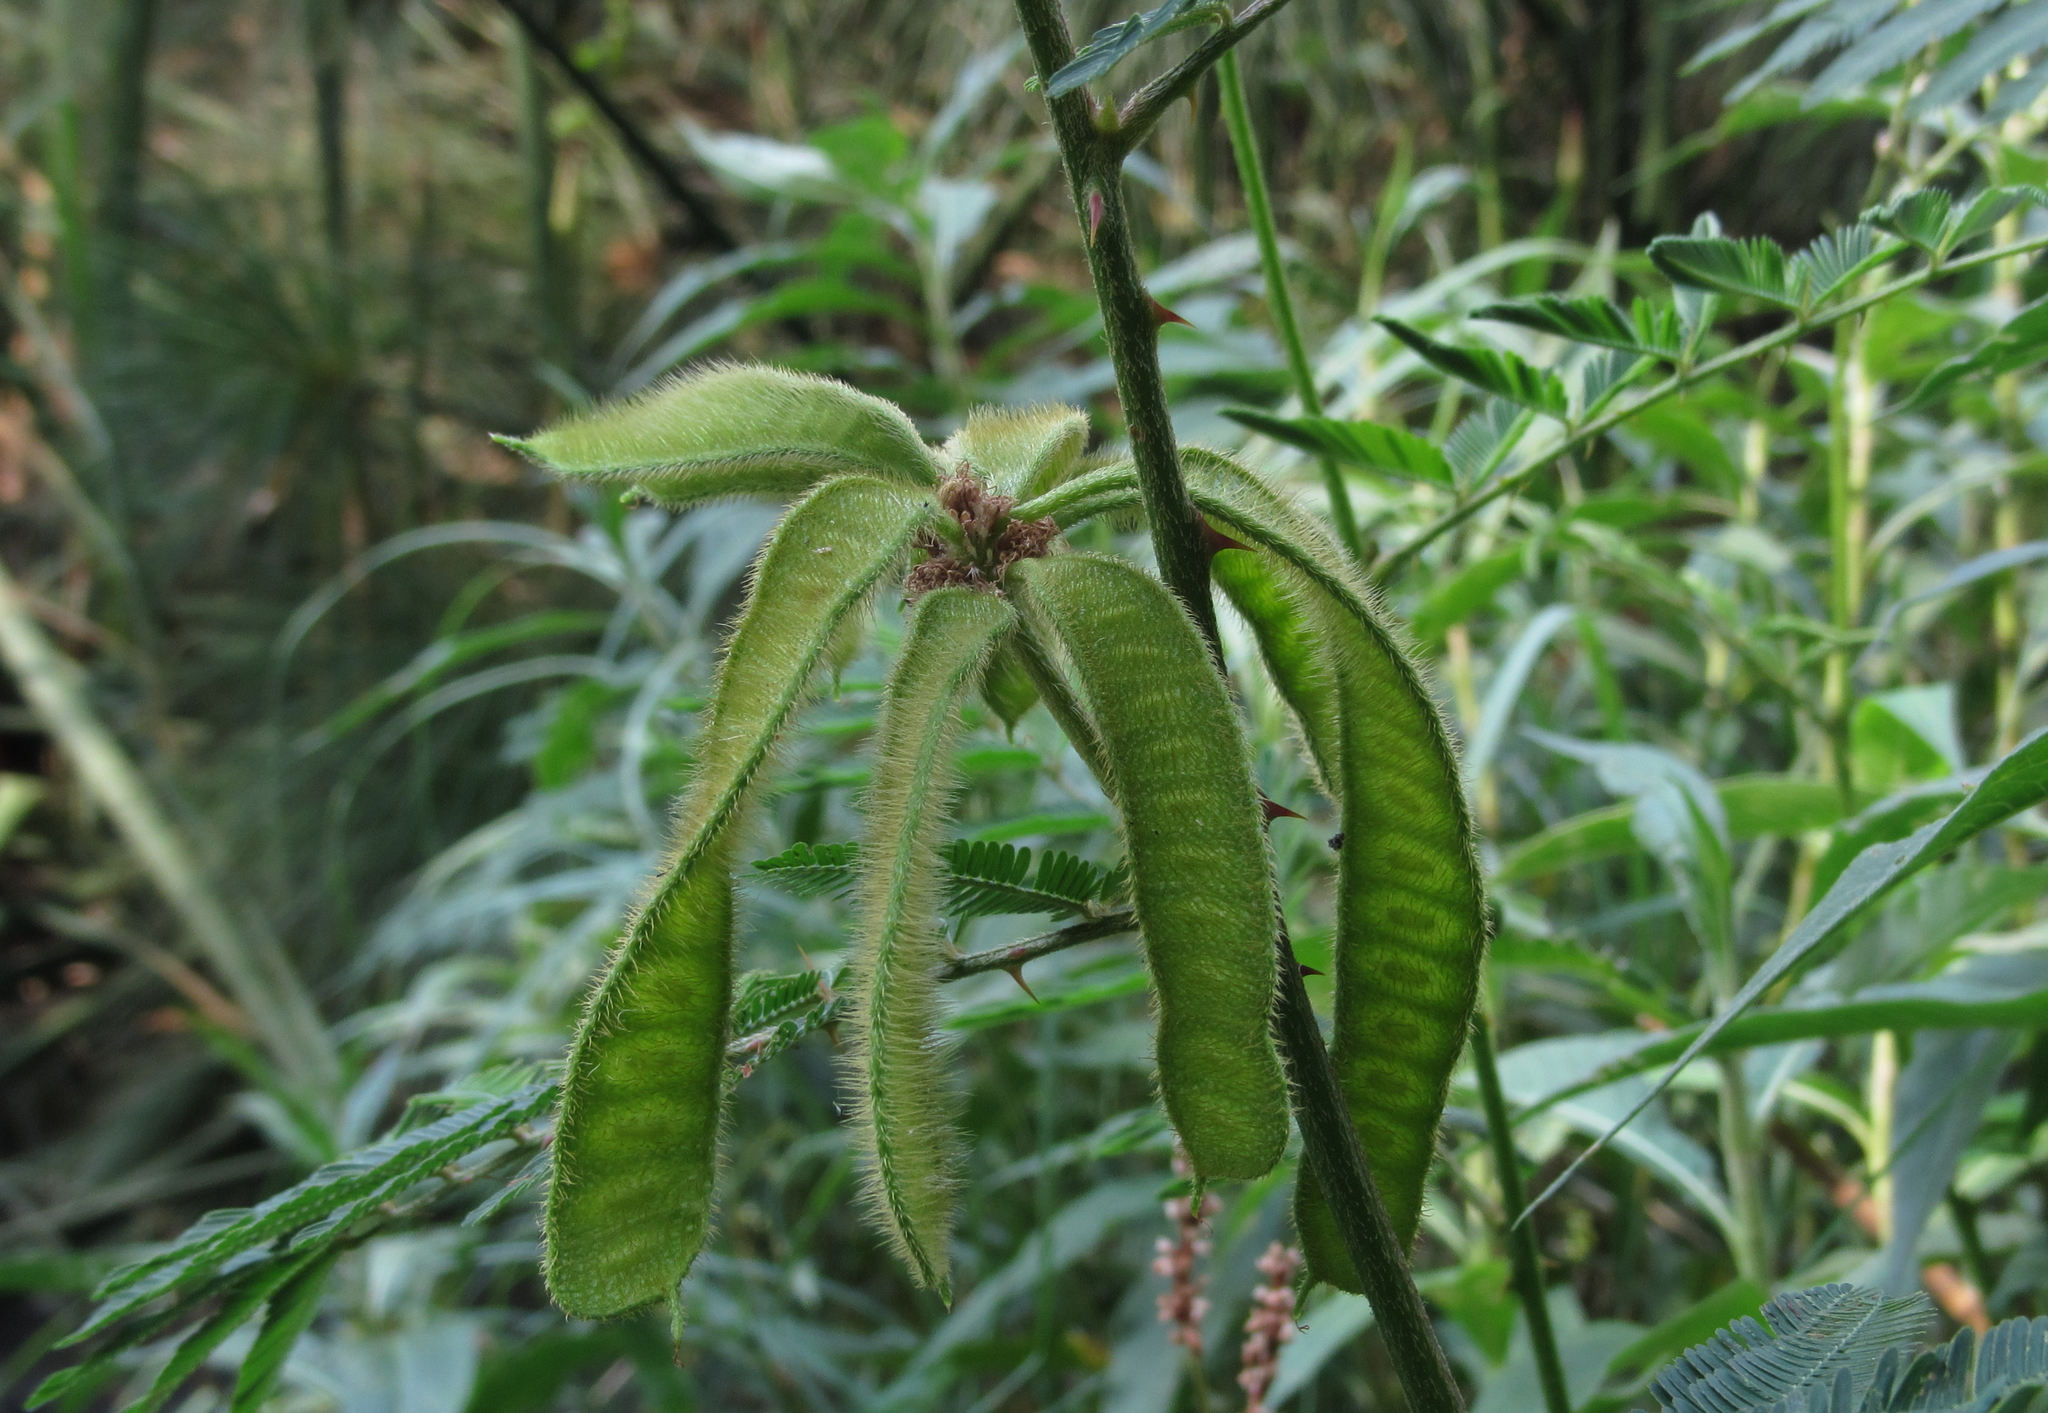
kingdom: Plantae
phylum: Tracheophyta
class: Magnoliopsida
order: Fabales
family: Fabaceae
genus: Mimosa
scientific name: Mimosa pigra
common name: Black mimosa
